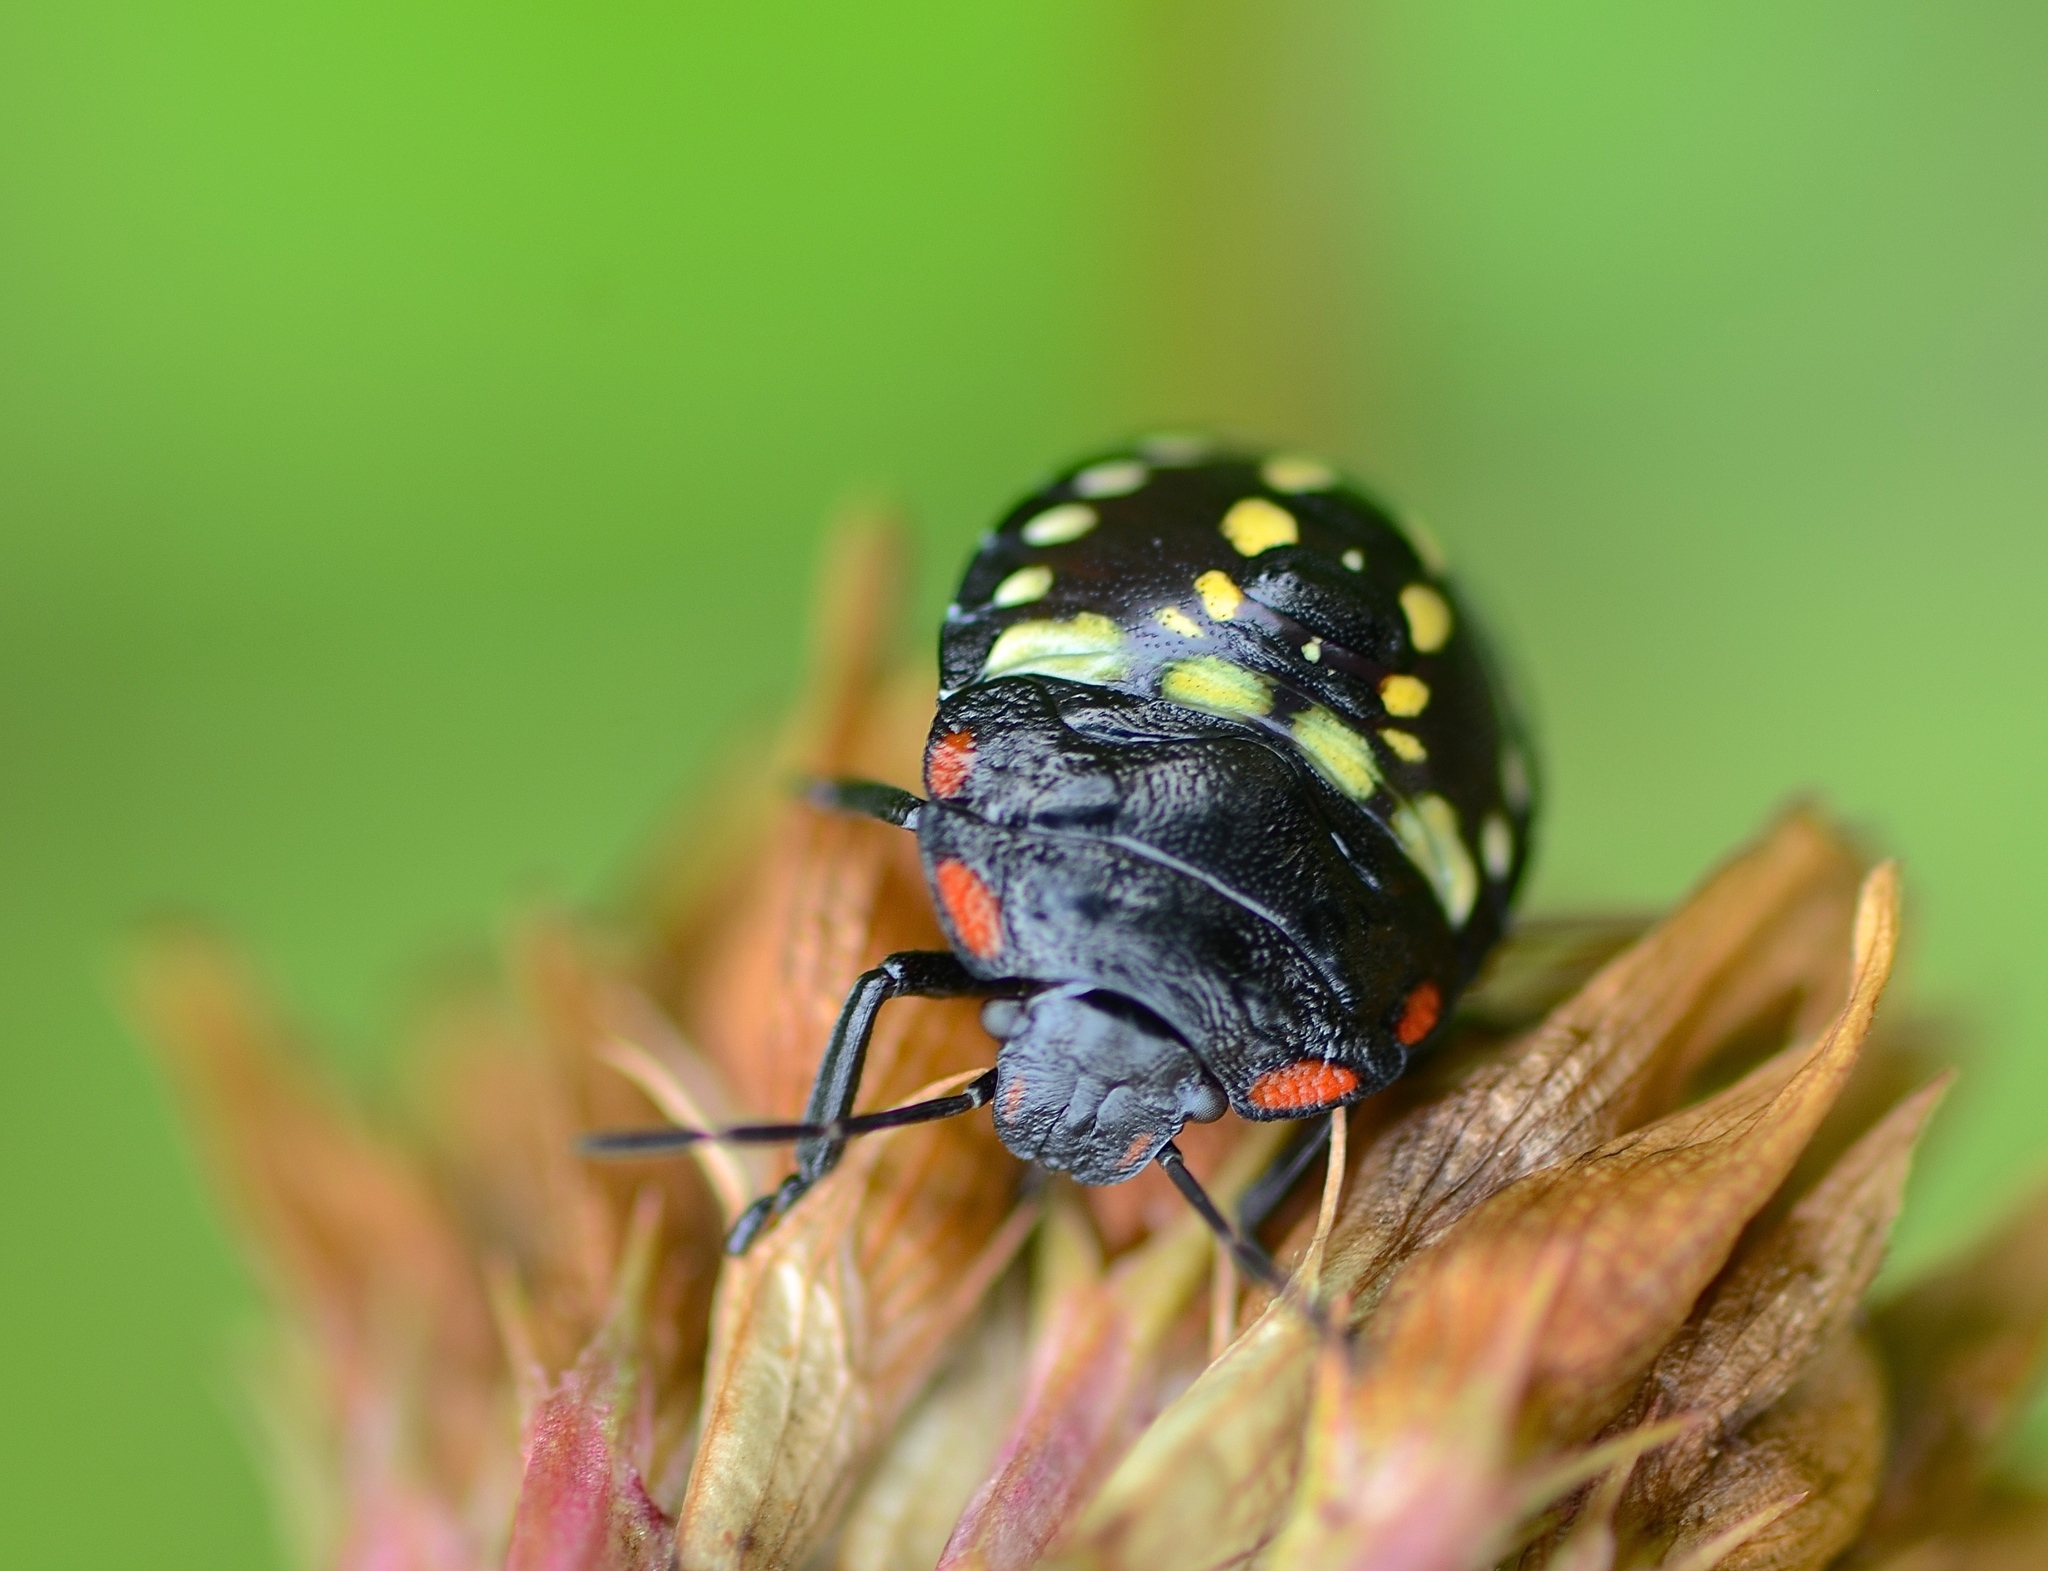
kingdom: Animalia
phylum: Arthropoda
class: Insecta
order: Hemiptera
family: Pentatomidae
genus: Nezara
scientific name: Nezara viridula
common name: Southern green stink bug
